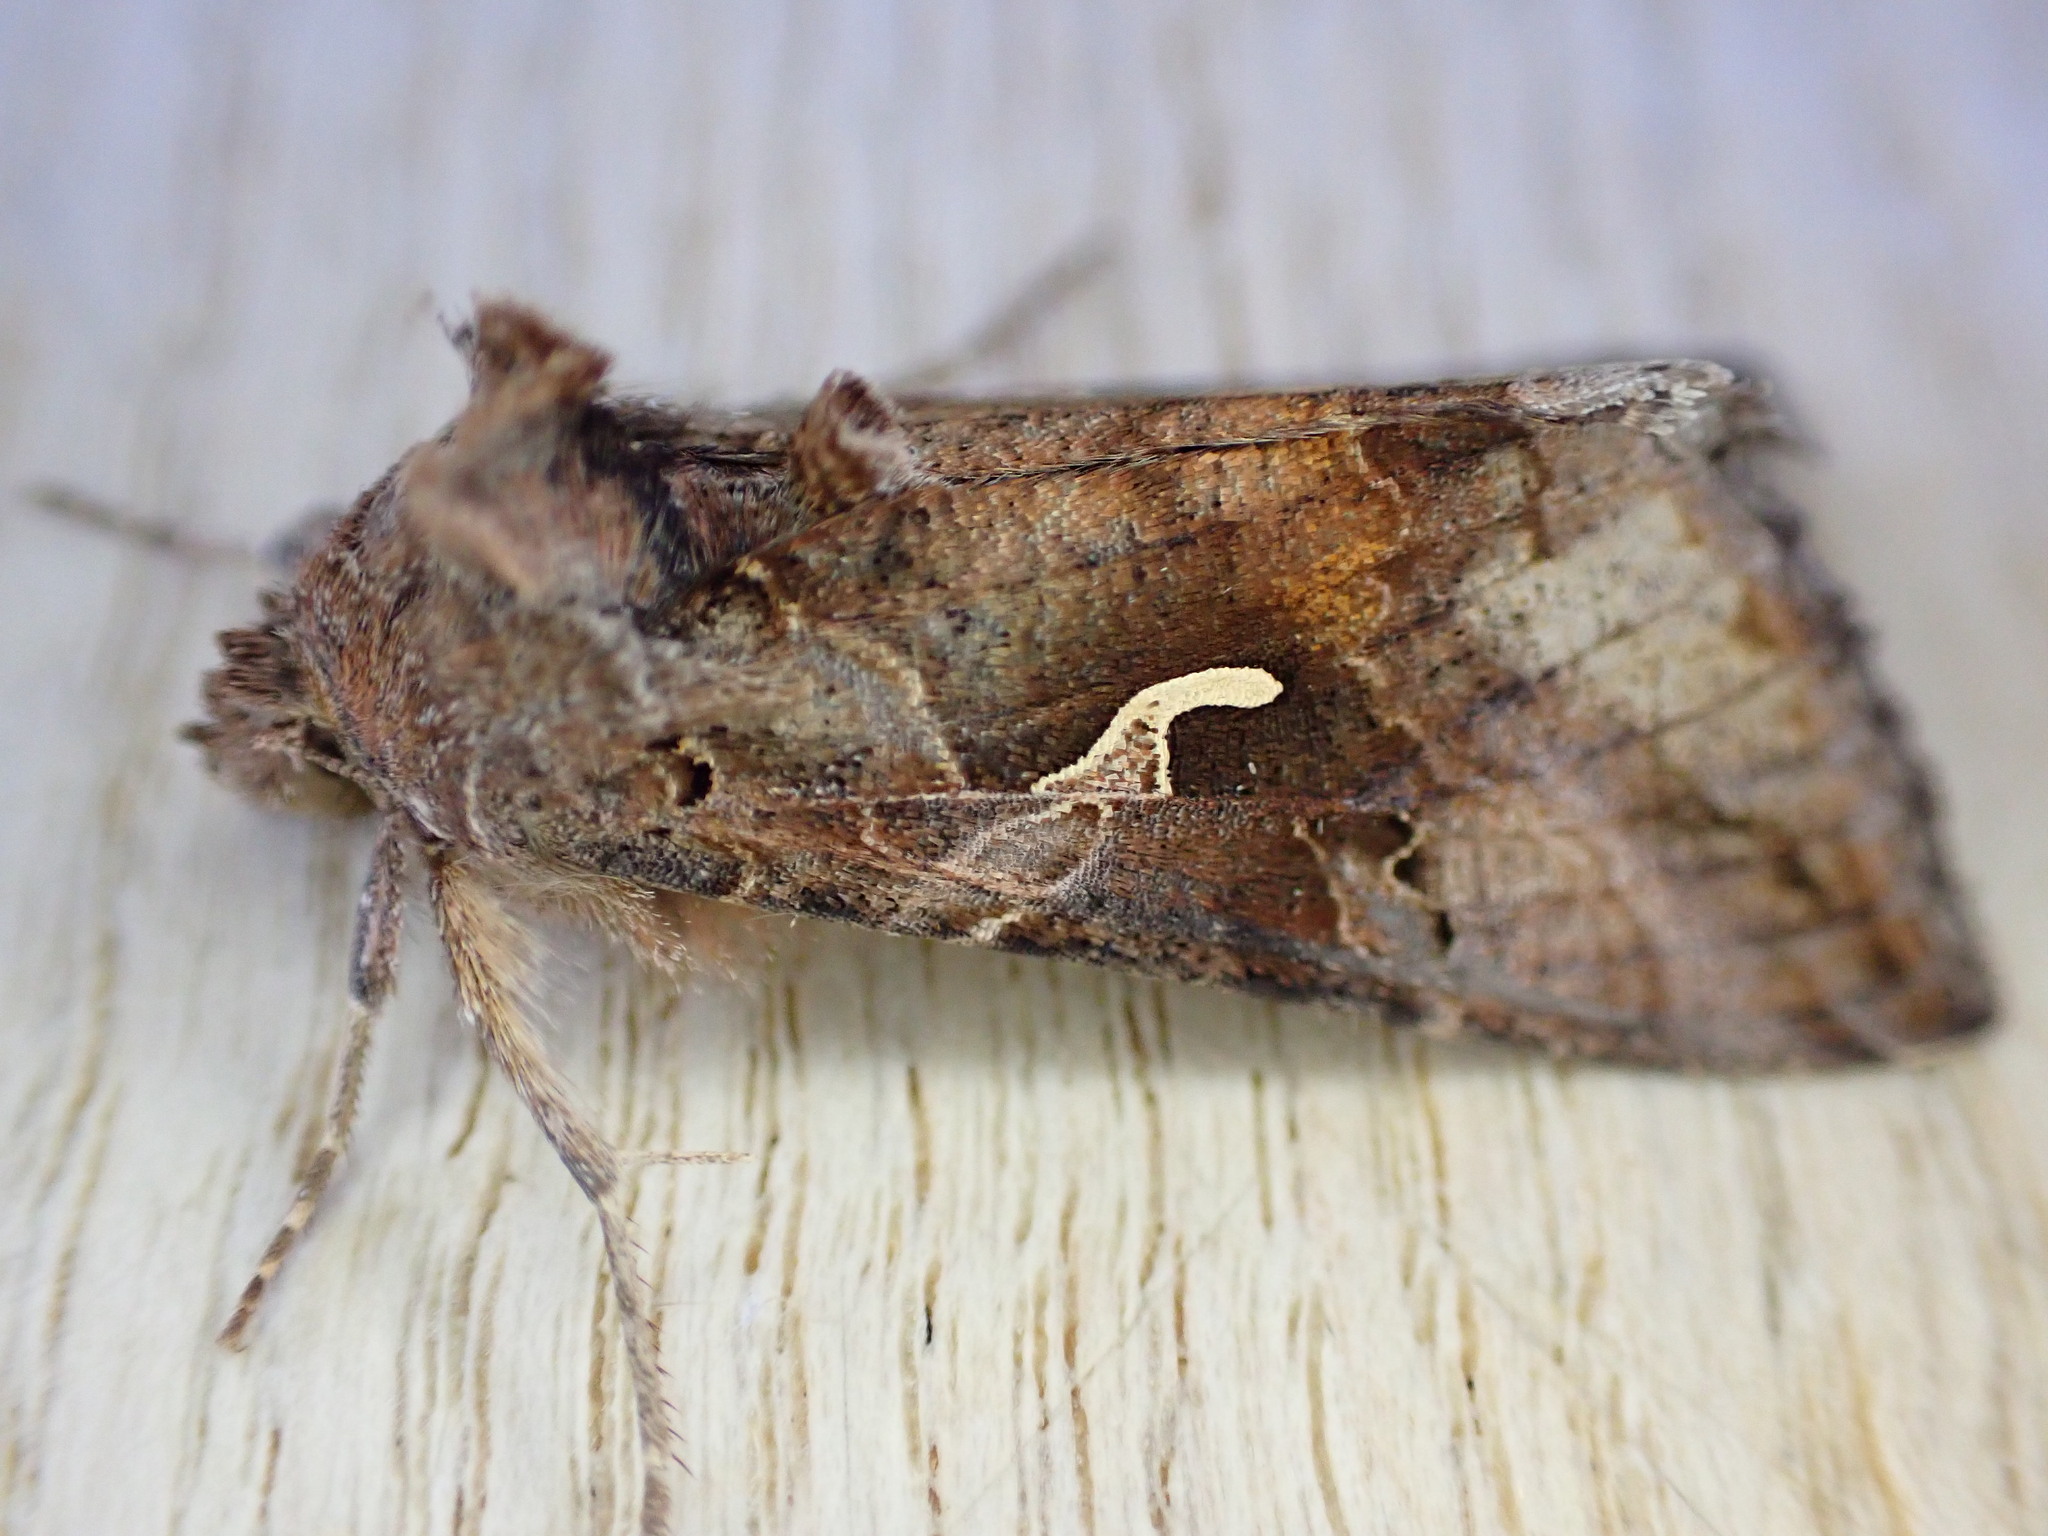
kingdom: Animalia
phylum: Arthropoda
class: Insecta
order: Lepidoptera
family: Noctuidae
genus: Autographa
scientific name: Autographa gamma
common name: Silver y
